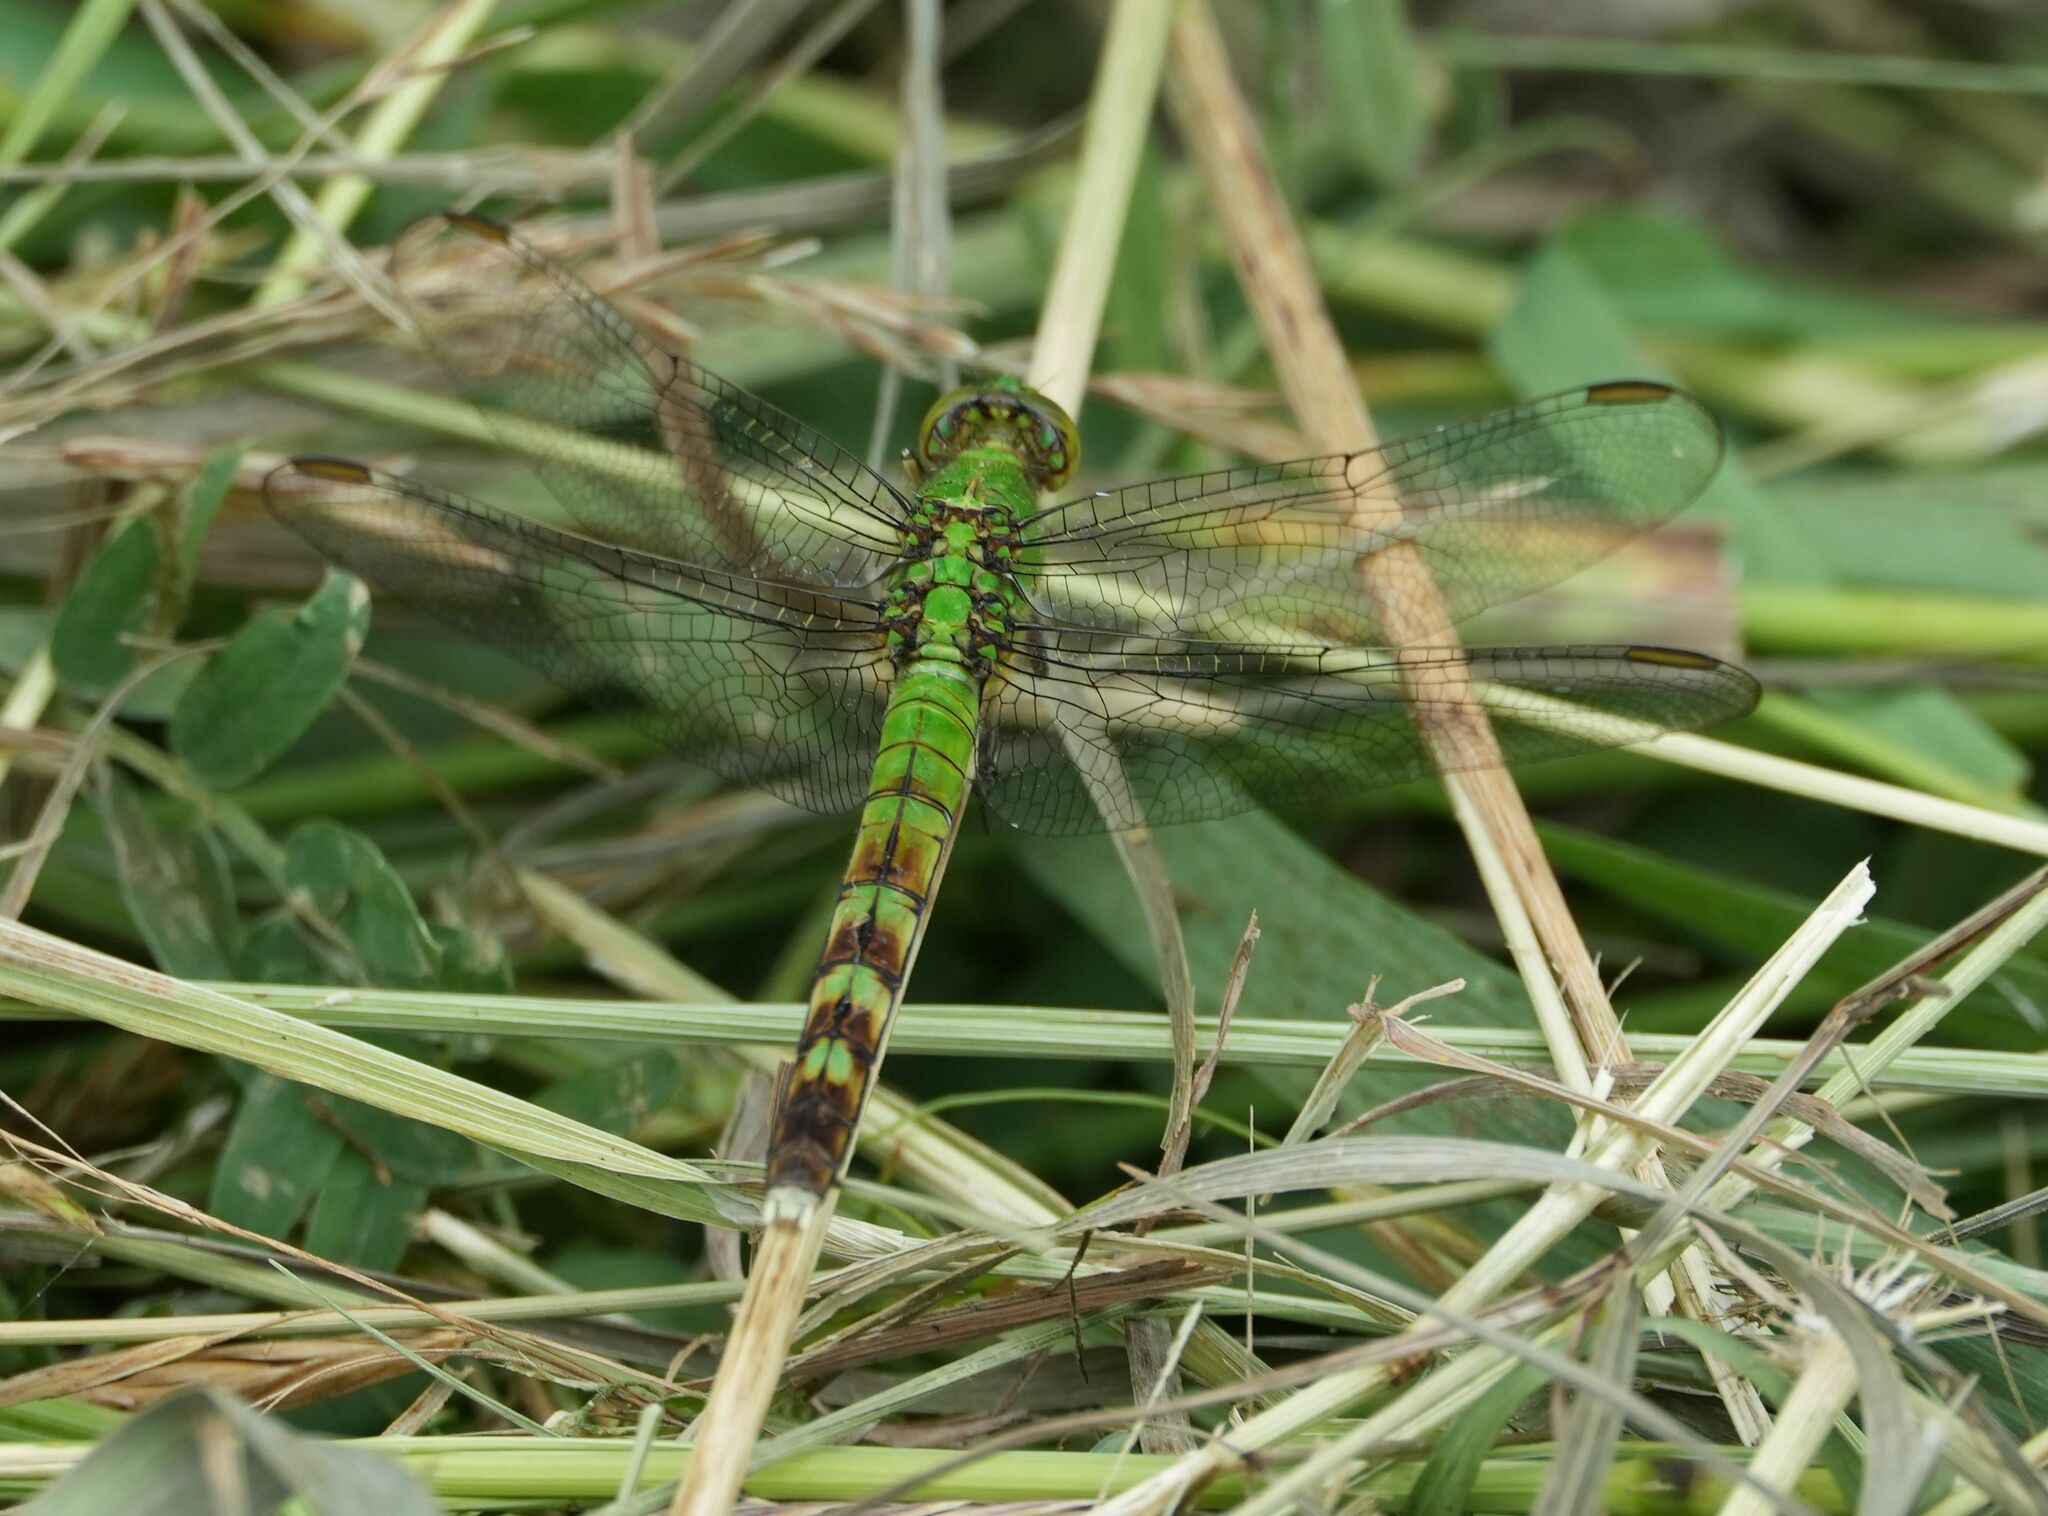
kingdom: Animalia
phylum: Arthropoda
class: Insecta
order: Odonata
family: Libellulidae
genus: Erythemis
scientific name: Erythemis simplicicollis
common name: Eastern pondhawk
